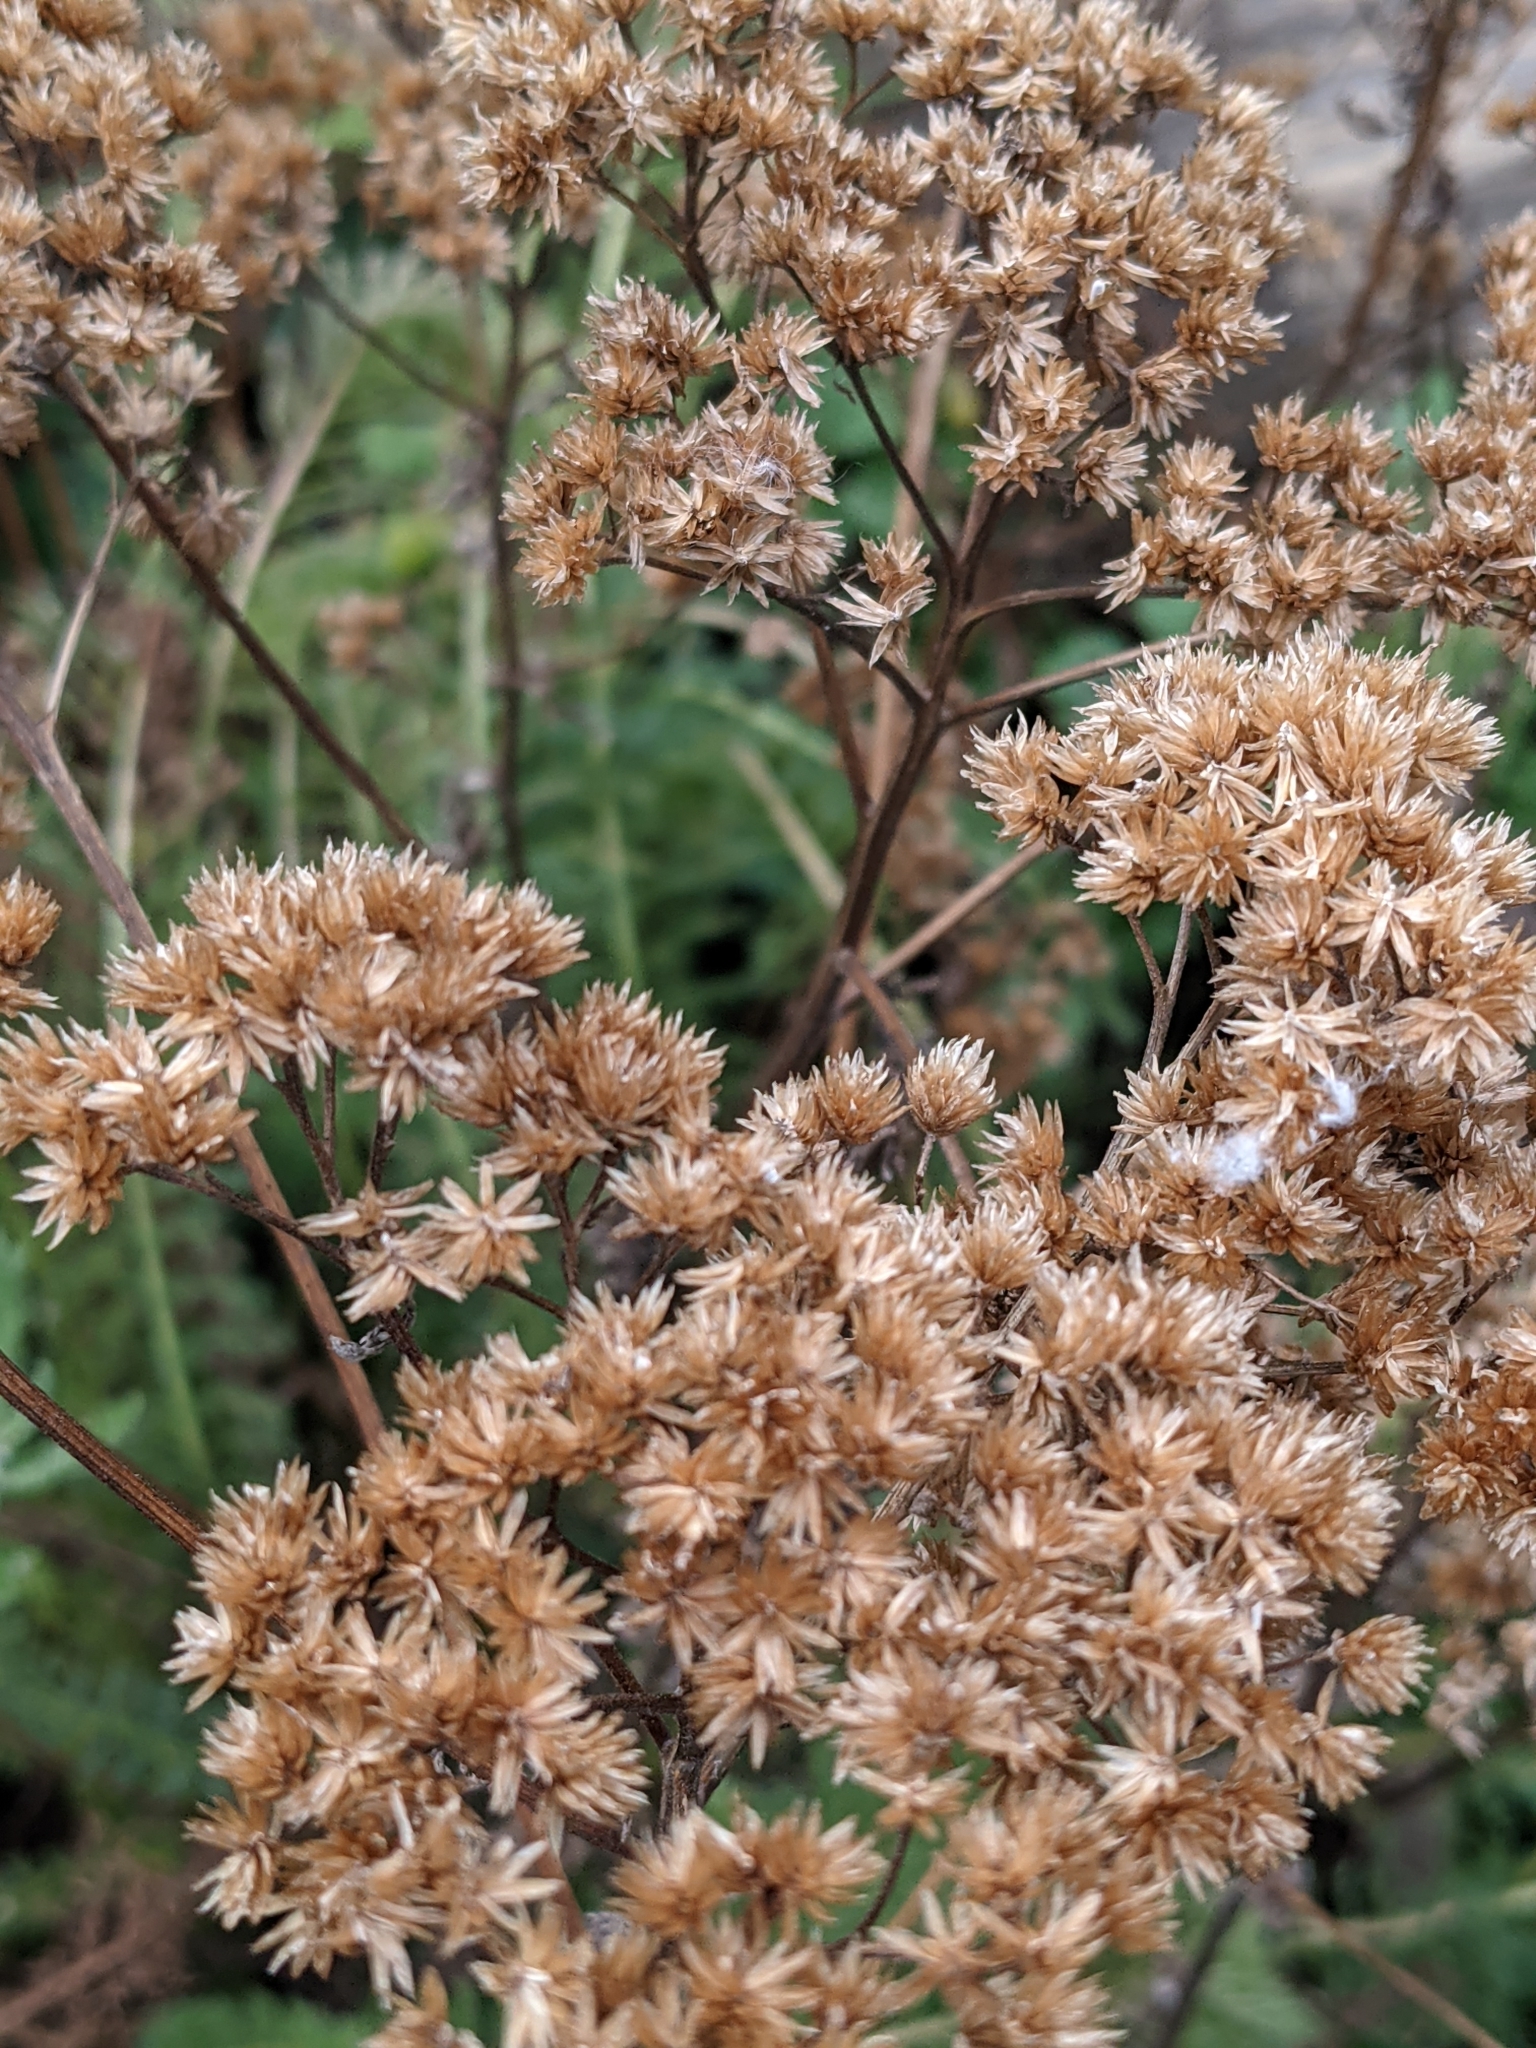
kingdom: Plantae
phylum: Tracheophyta
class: Magnoliopsida
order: Asterales
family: Asteraceae
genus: Achillea
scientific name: Achillea millefolium
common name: Yarrow
